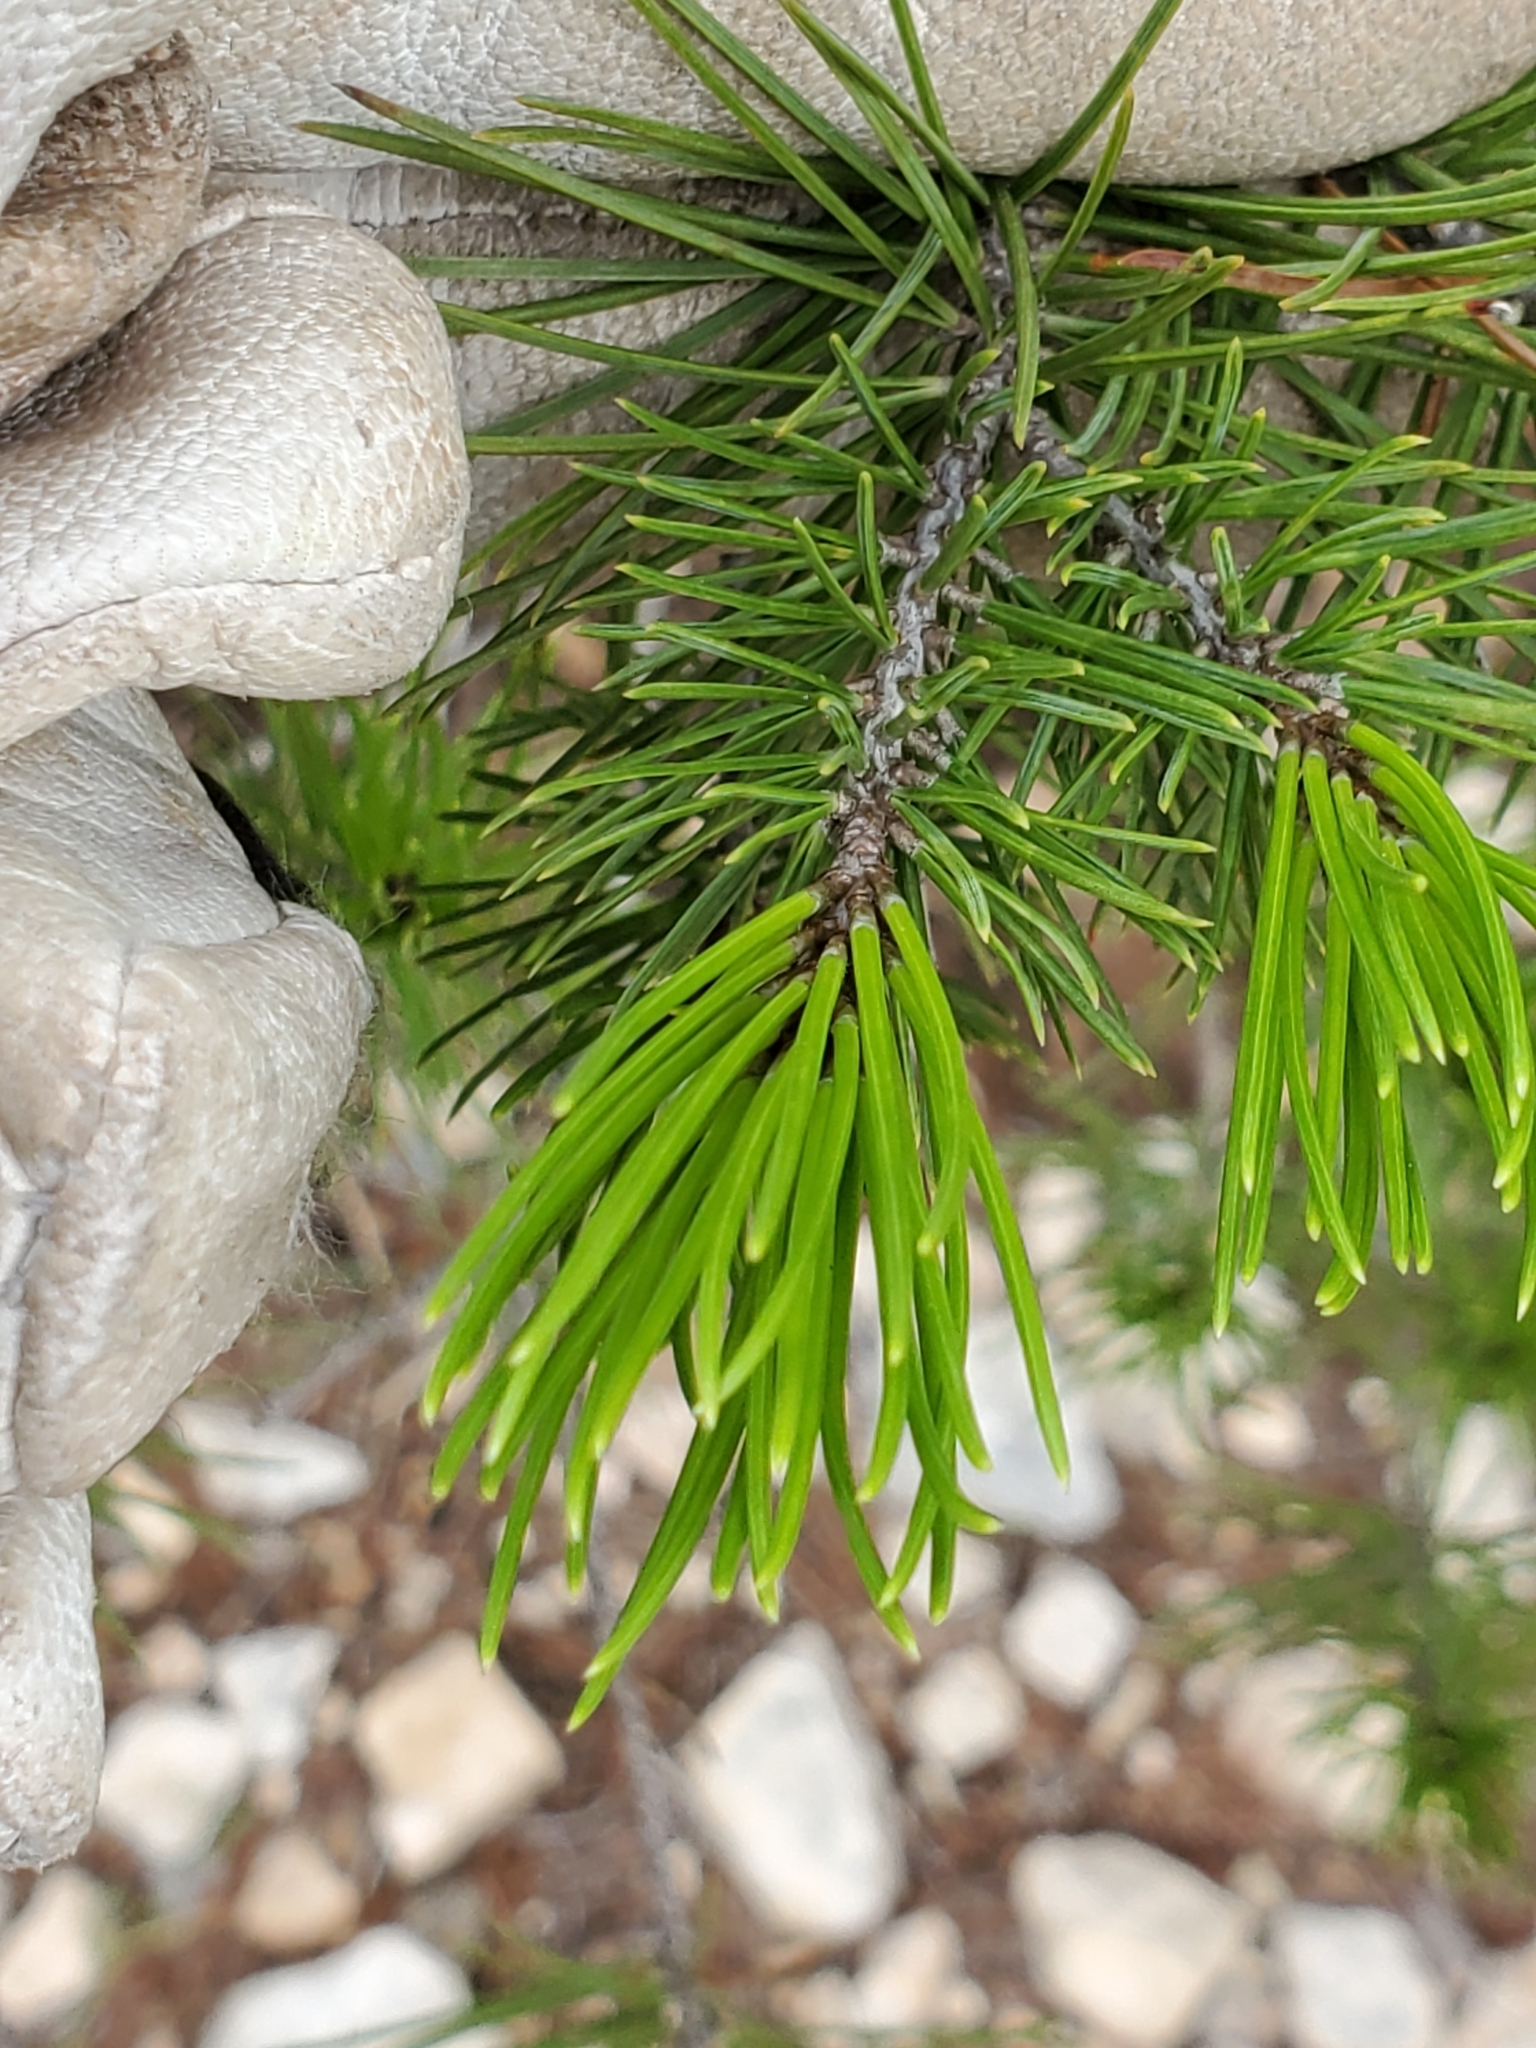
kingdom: Plantae
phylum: Tracheophyta
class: Pinopsida
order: Pinales
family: Pinaceae
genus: Pinus
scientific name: Pinus remota
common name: Nut pine
